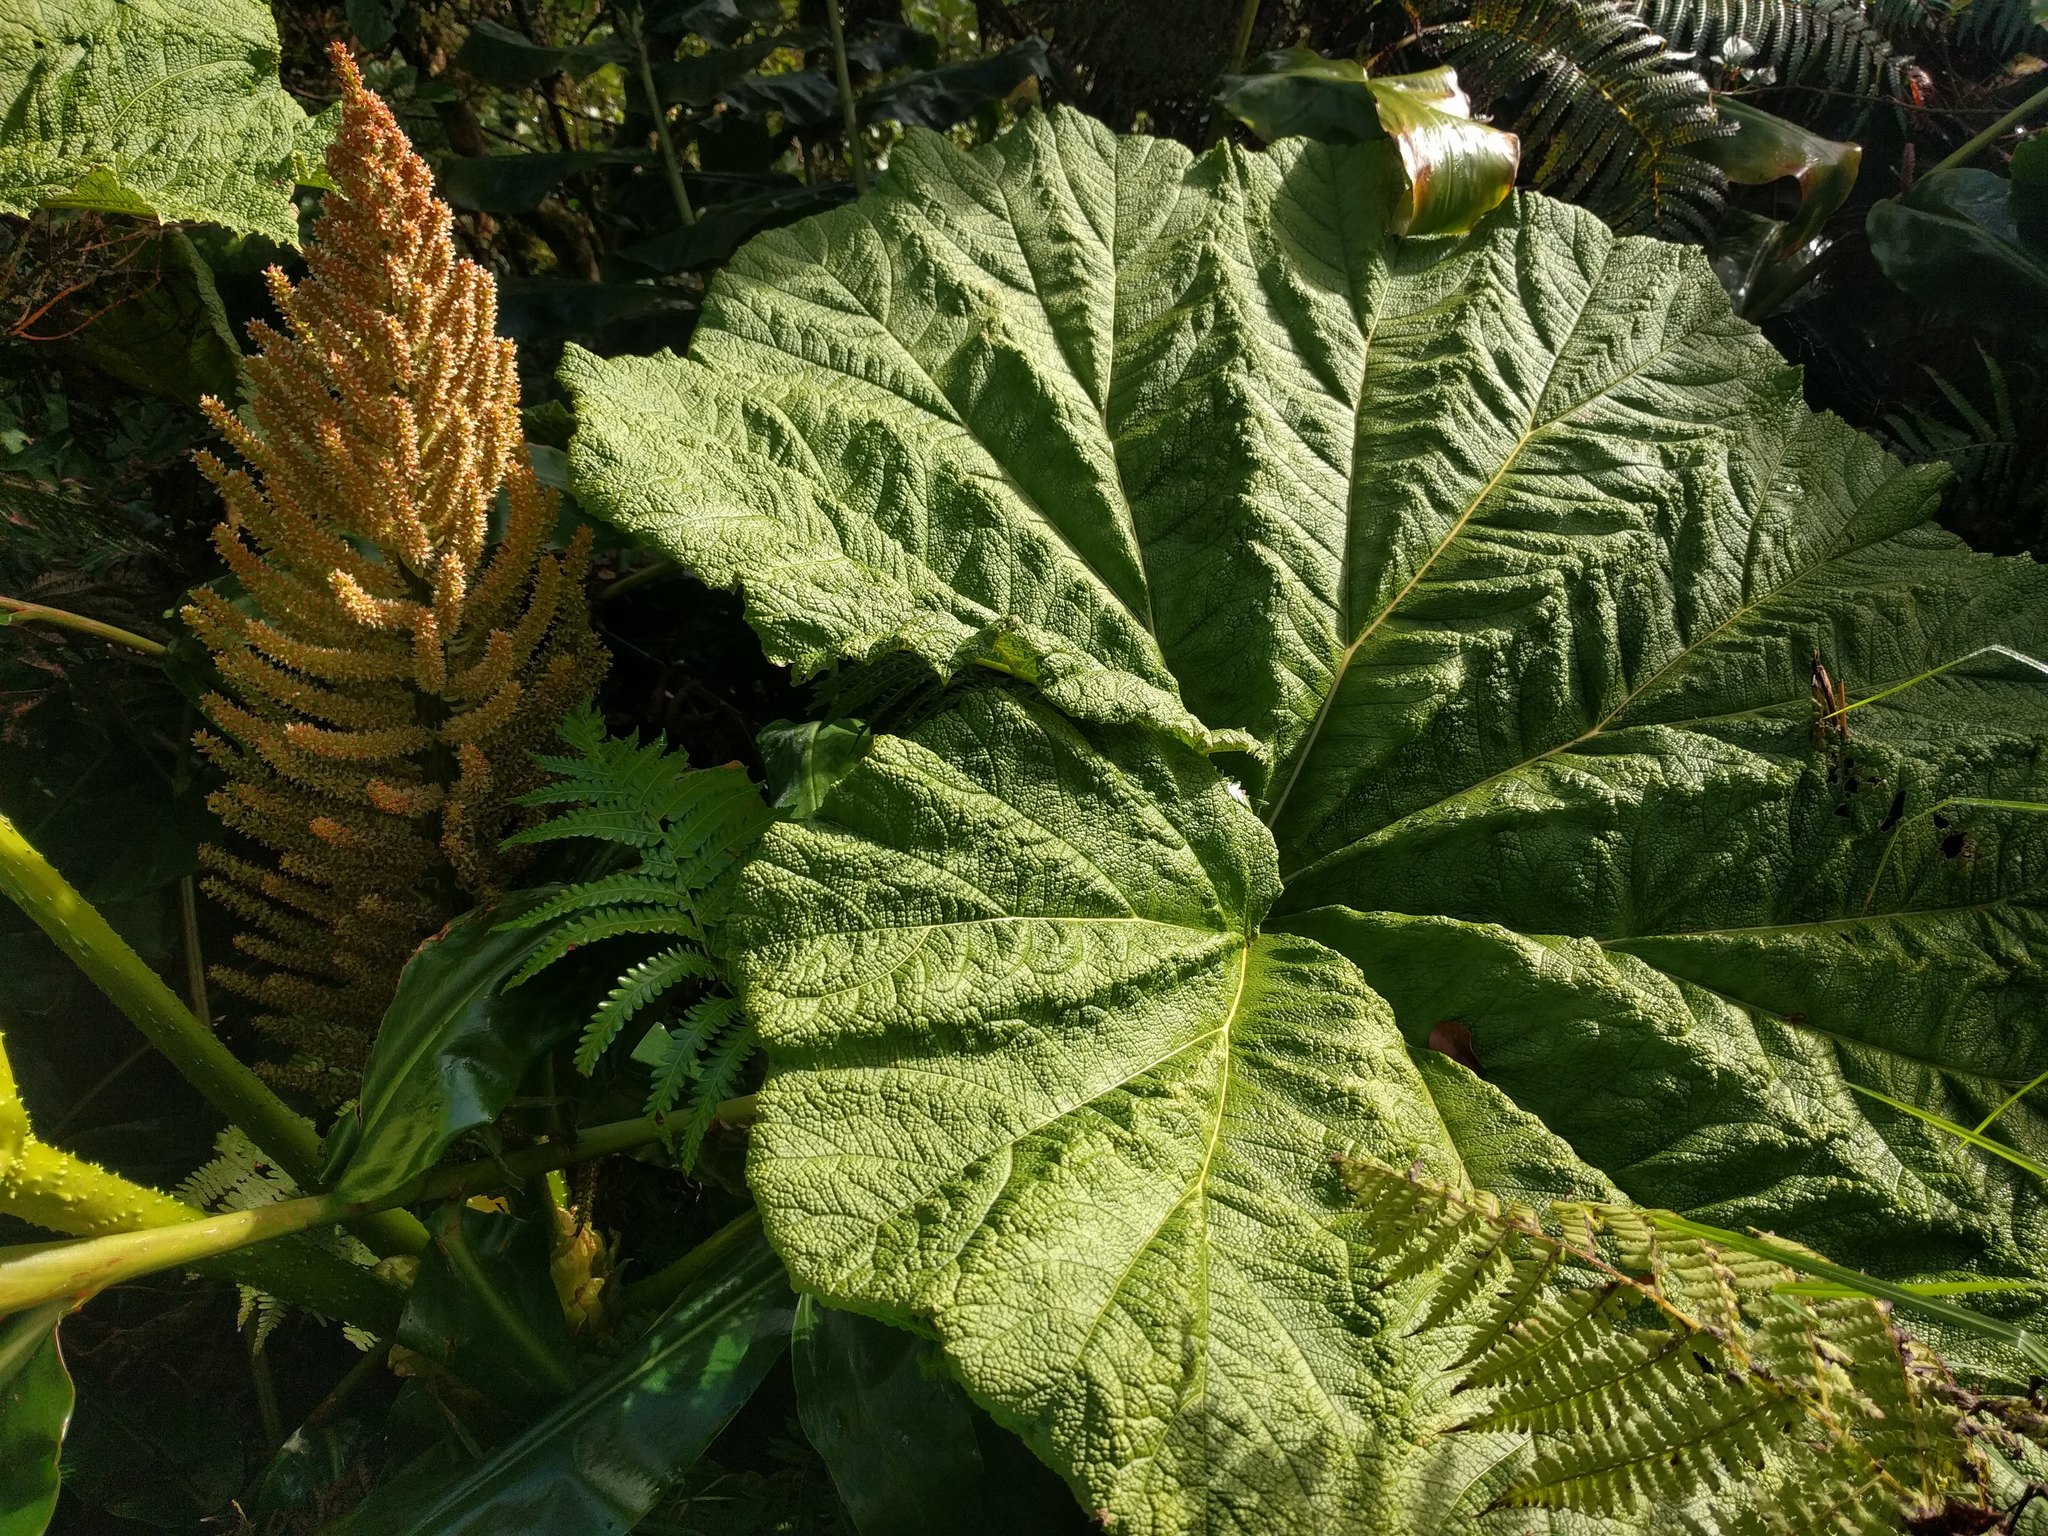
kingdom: Plantae
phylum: Tracheophyta
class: Magnoliopsida
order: Gunnerales
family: Gunneraceae
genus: Gunnera
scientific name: Gunnera petaloidea
